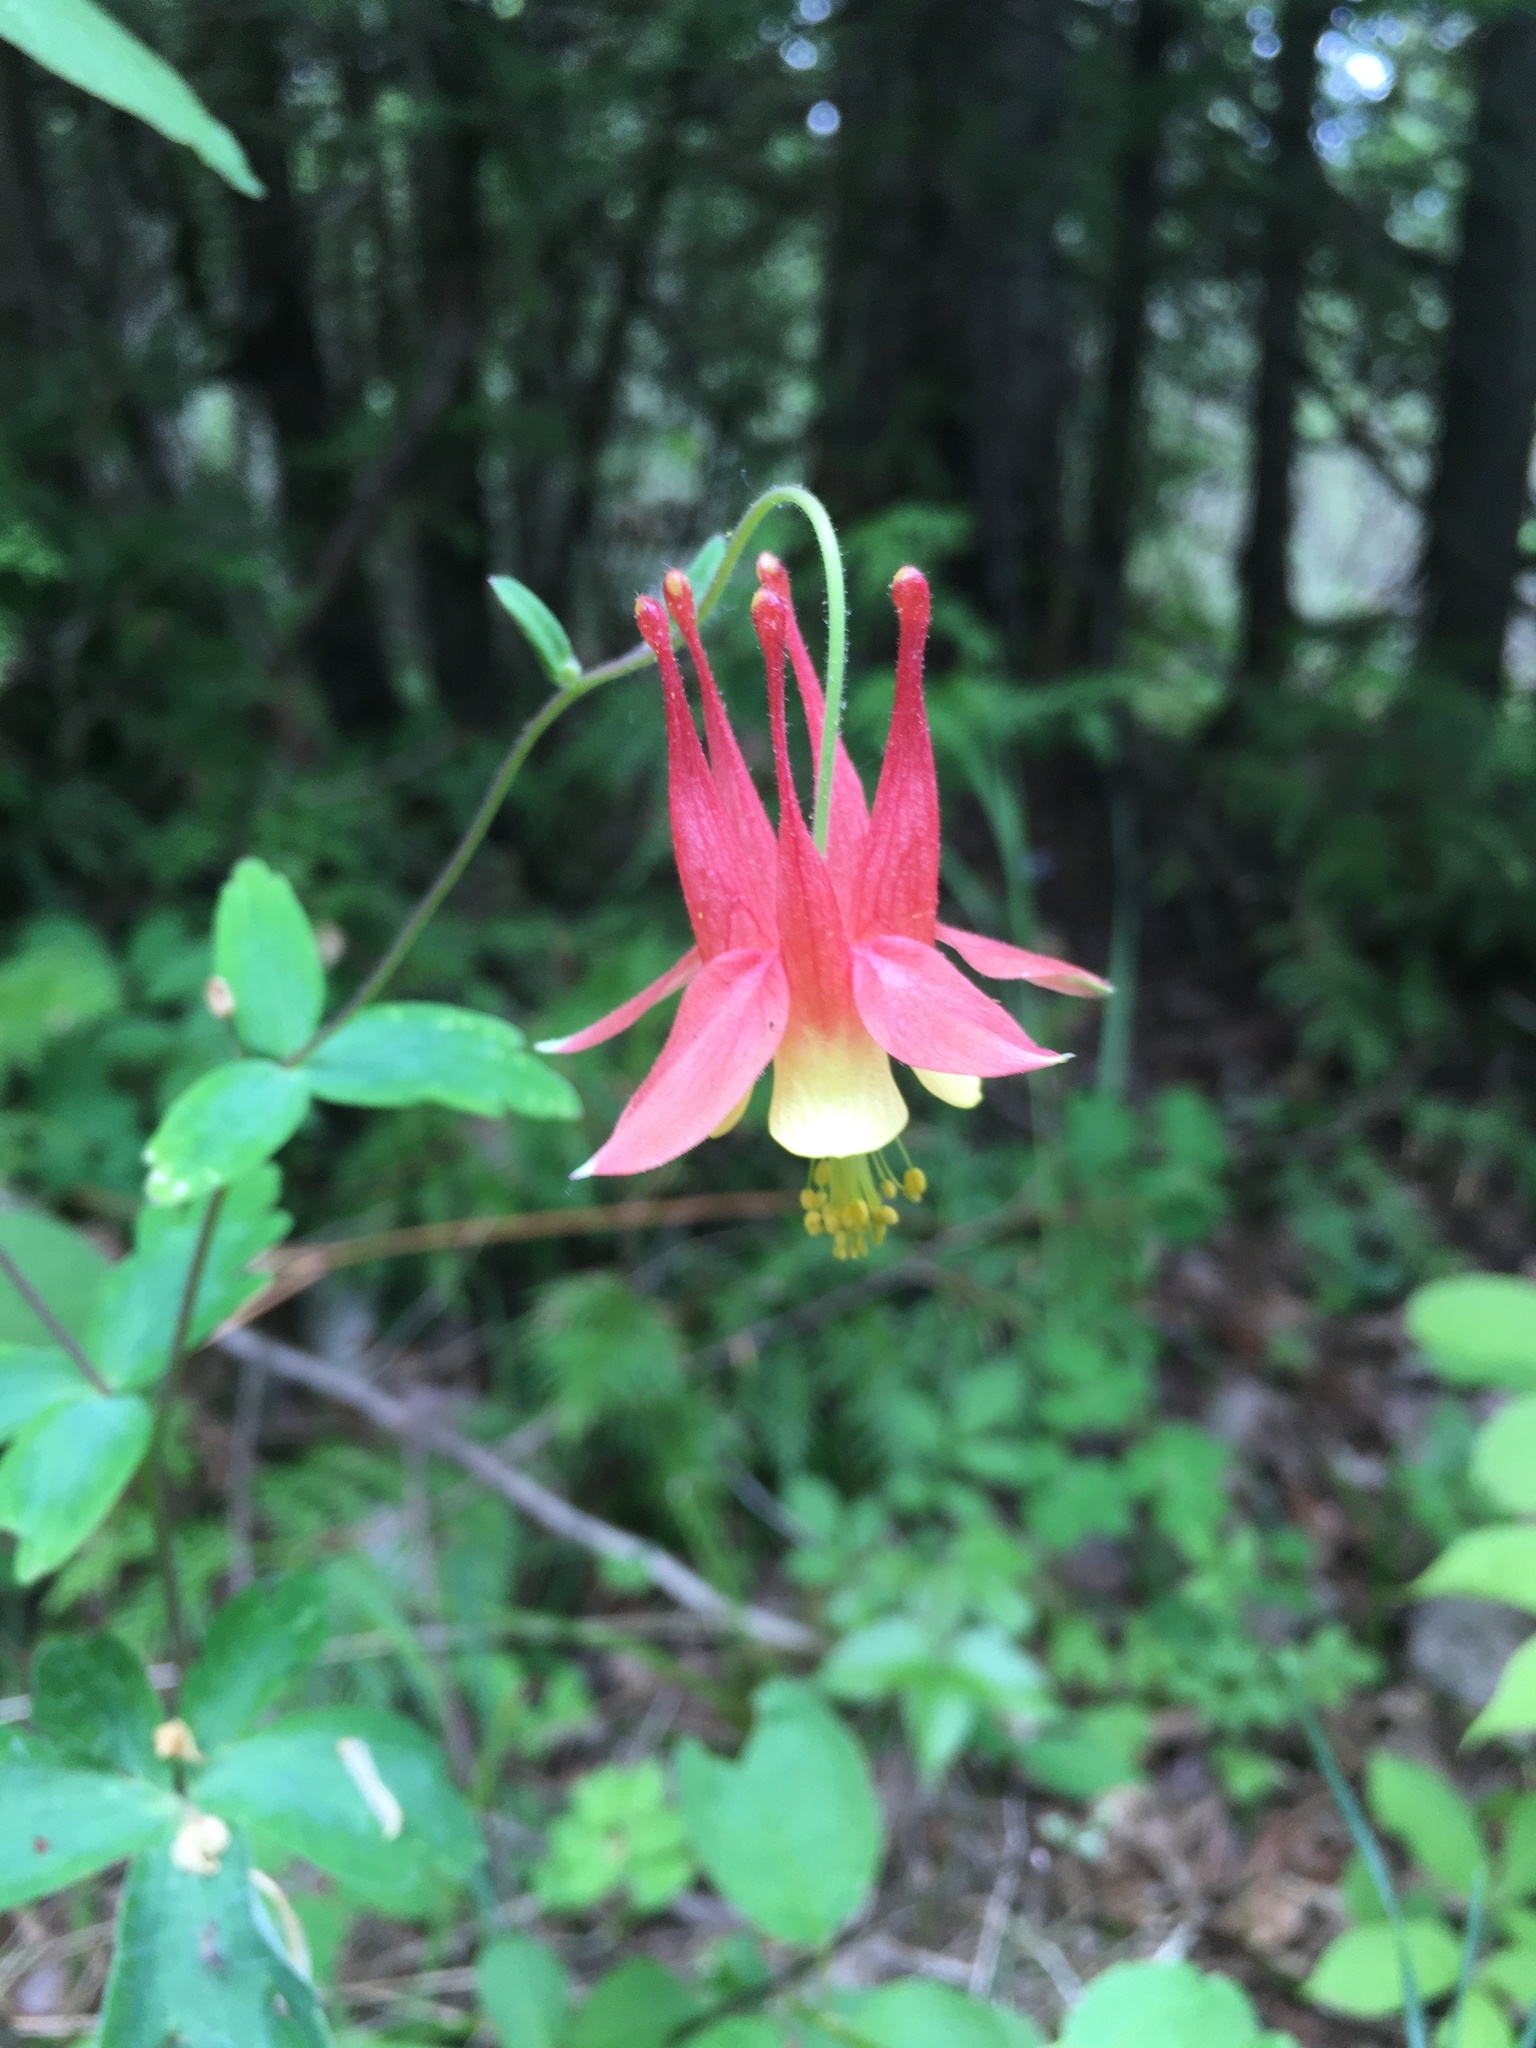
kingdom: Plantae
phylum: Tracheophyta
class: Magnoliopsida
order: Ranunculales
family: Ranunculaceae
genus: Aquilegia
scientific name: Aquilegia canadensis
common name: American columbine
